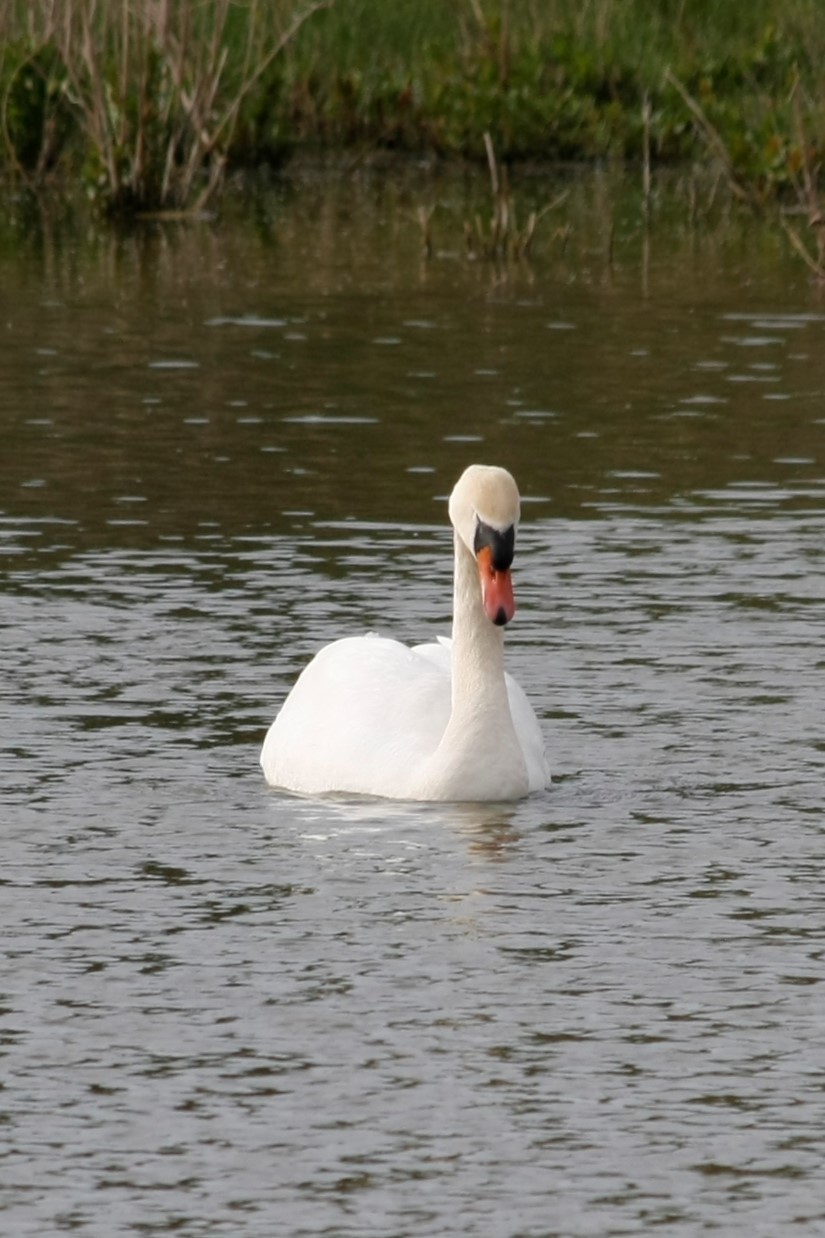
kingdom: Animalia
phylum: Chordata
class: Aves
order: Anseriformes
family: Anatidae
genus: Cygnus
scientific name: Cygnus olor
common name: Mute swan
